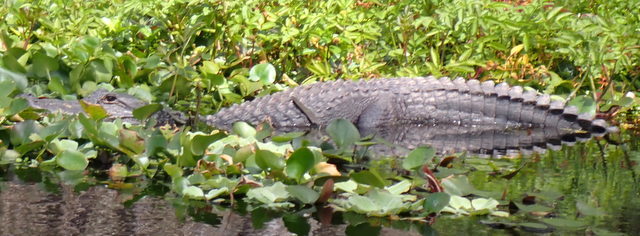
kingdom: Animalia
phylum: Chordata
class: Crocodylia
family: Alligatoridae
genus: Alligator
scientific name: Alligator mississippiensis
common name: American alligator
